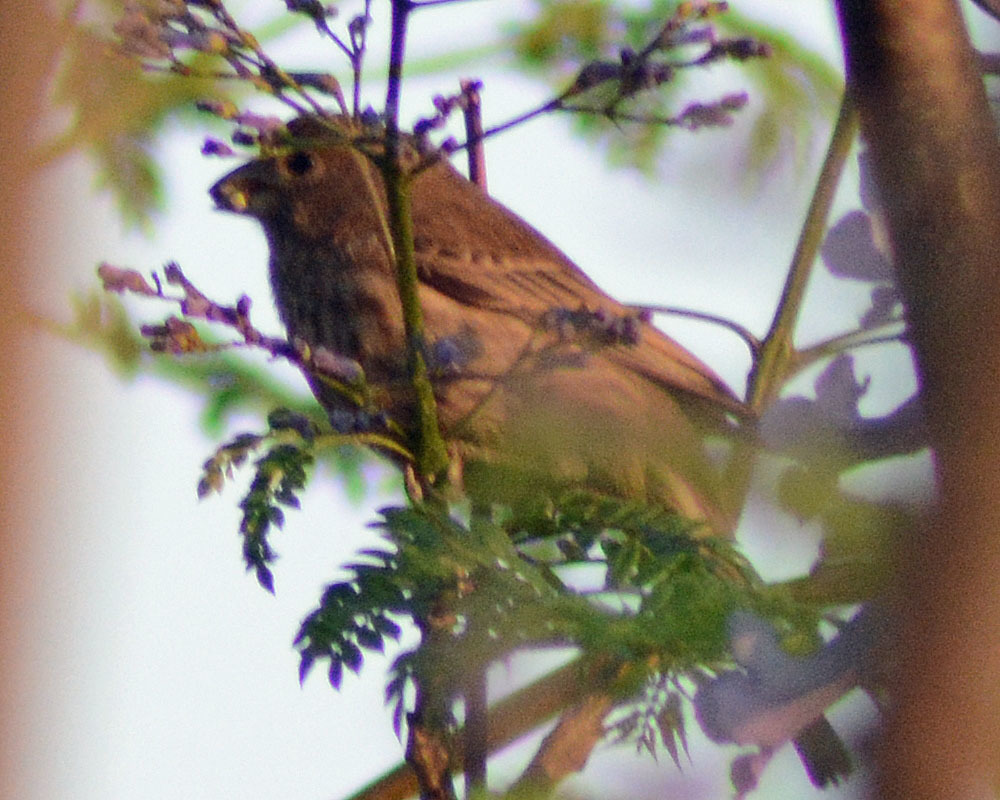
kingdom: Animalia
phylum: Chordata
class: Aves
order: Passeriformes
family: Fringillidae
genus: Haemorhous
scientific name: Haemorhous mexicanus
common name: House finch
